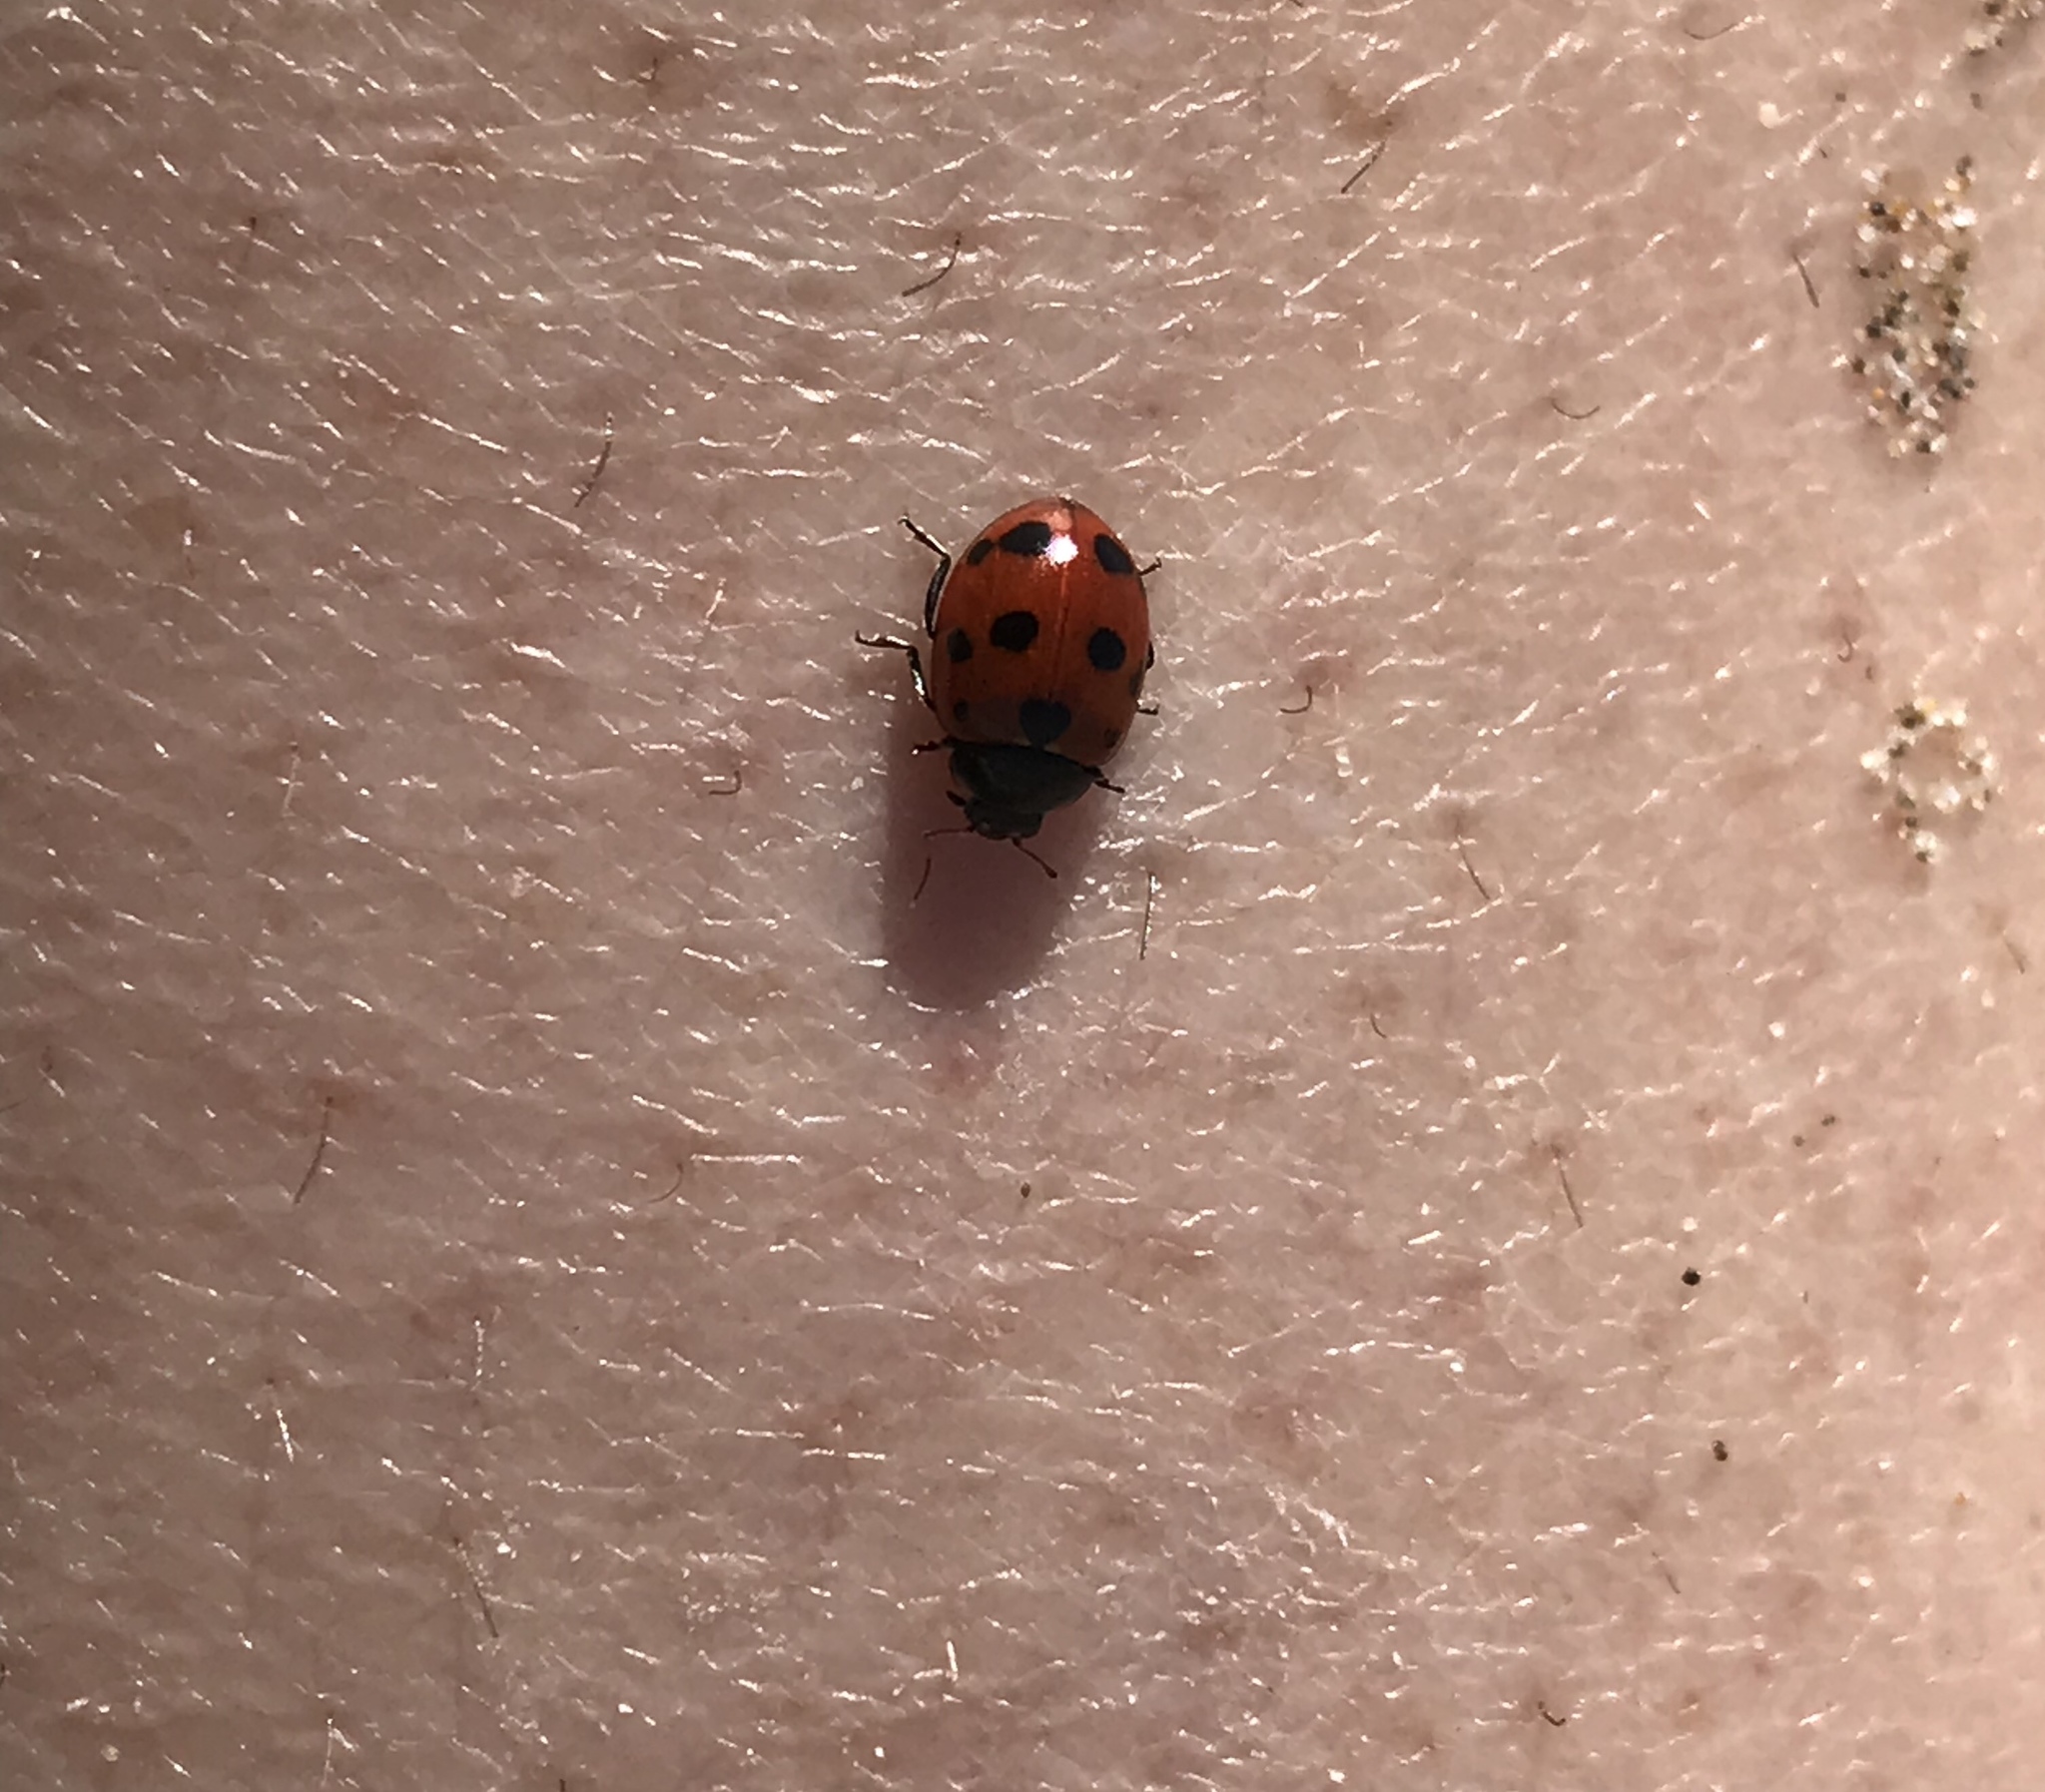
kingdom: Animalia
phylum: Arthropoda
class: Insecta
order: Coleoptera
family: Coccinellidae
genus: Coccinella
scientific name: Coccinella undecimpunctata
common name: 11-spot ladybird
